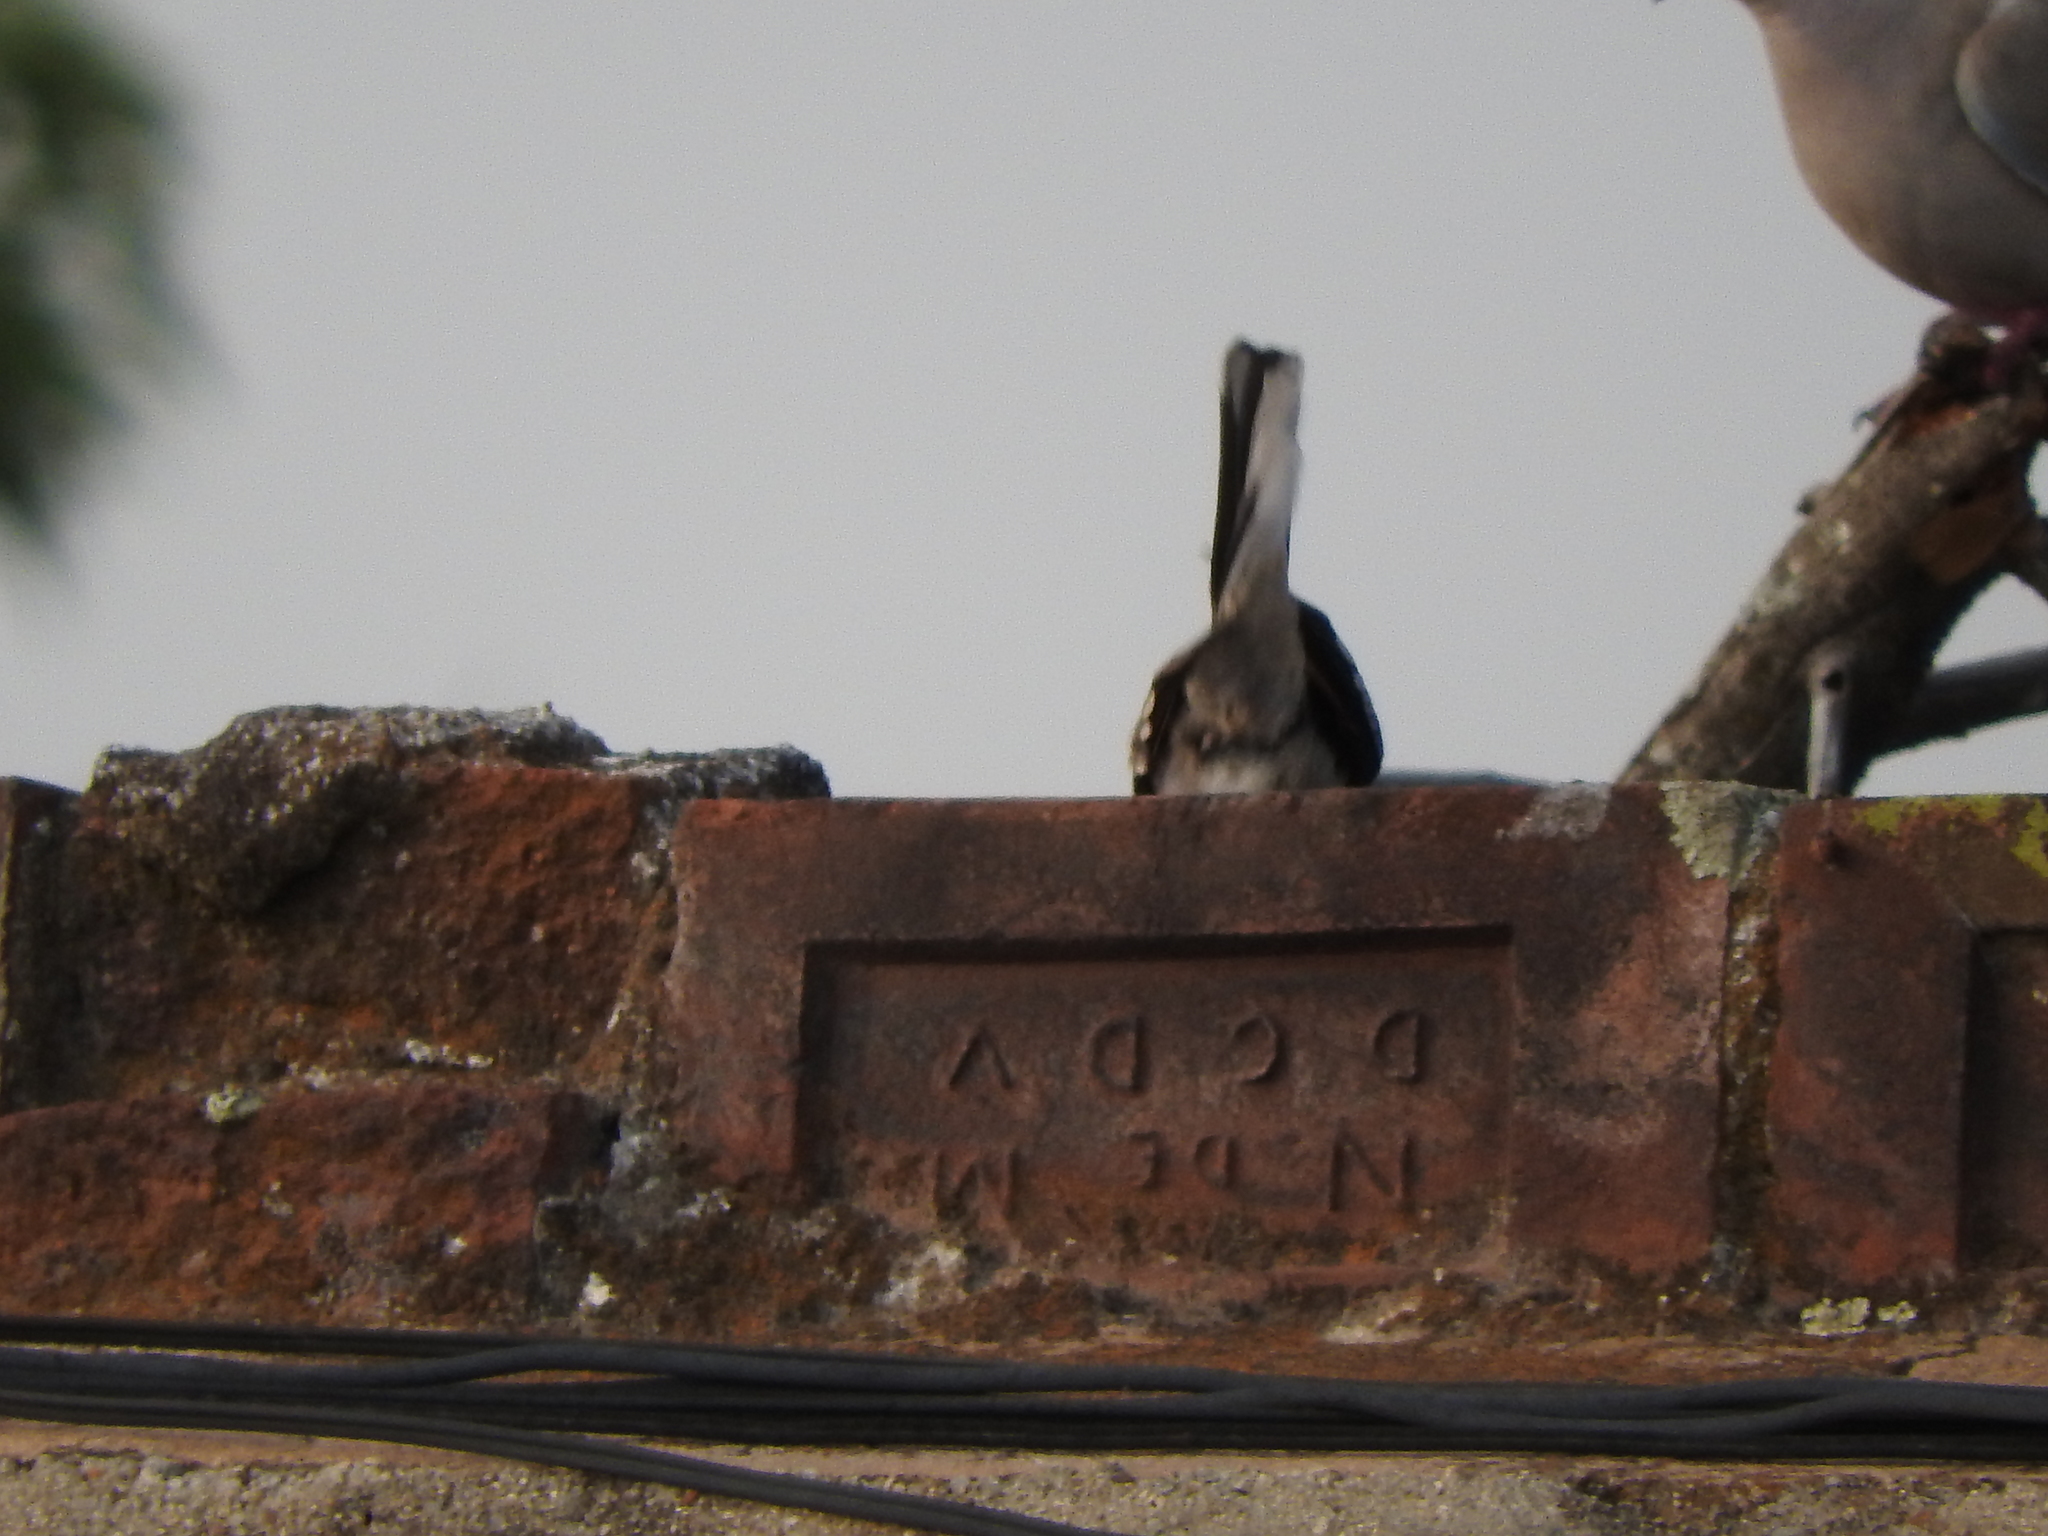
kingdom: Animalia
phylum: Chordata
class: Aves
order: Columbiformes
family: Columbidae
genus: Columbina
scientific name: Columbina inca
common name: Inca dove
